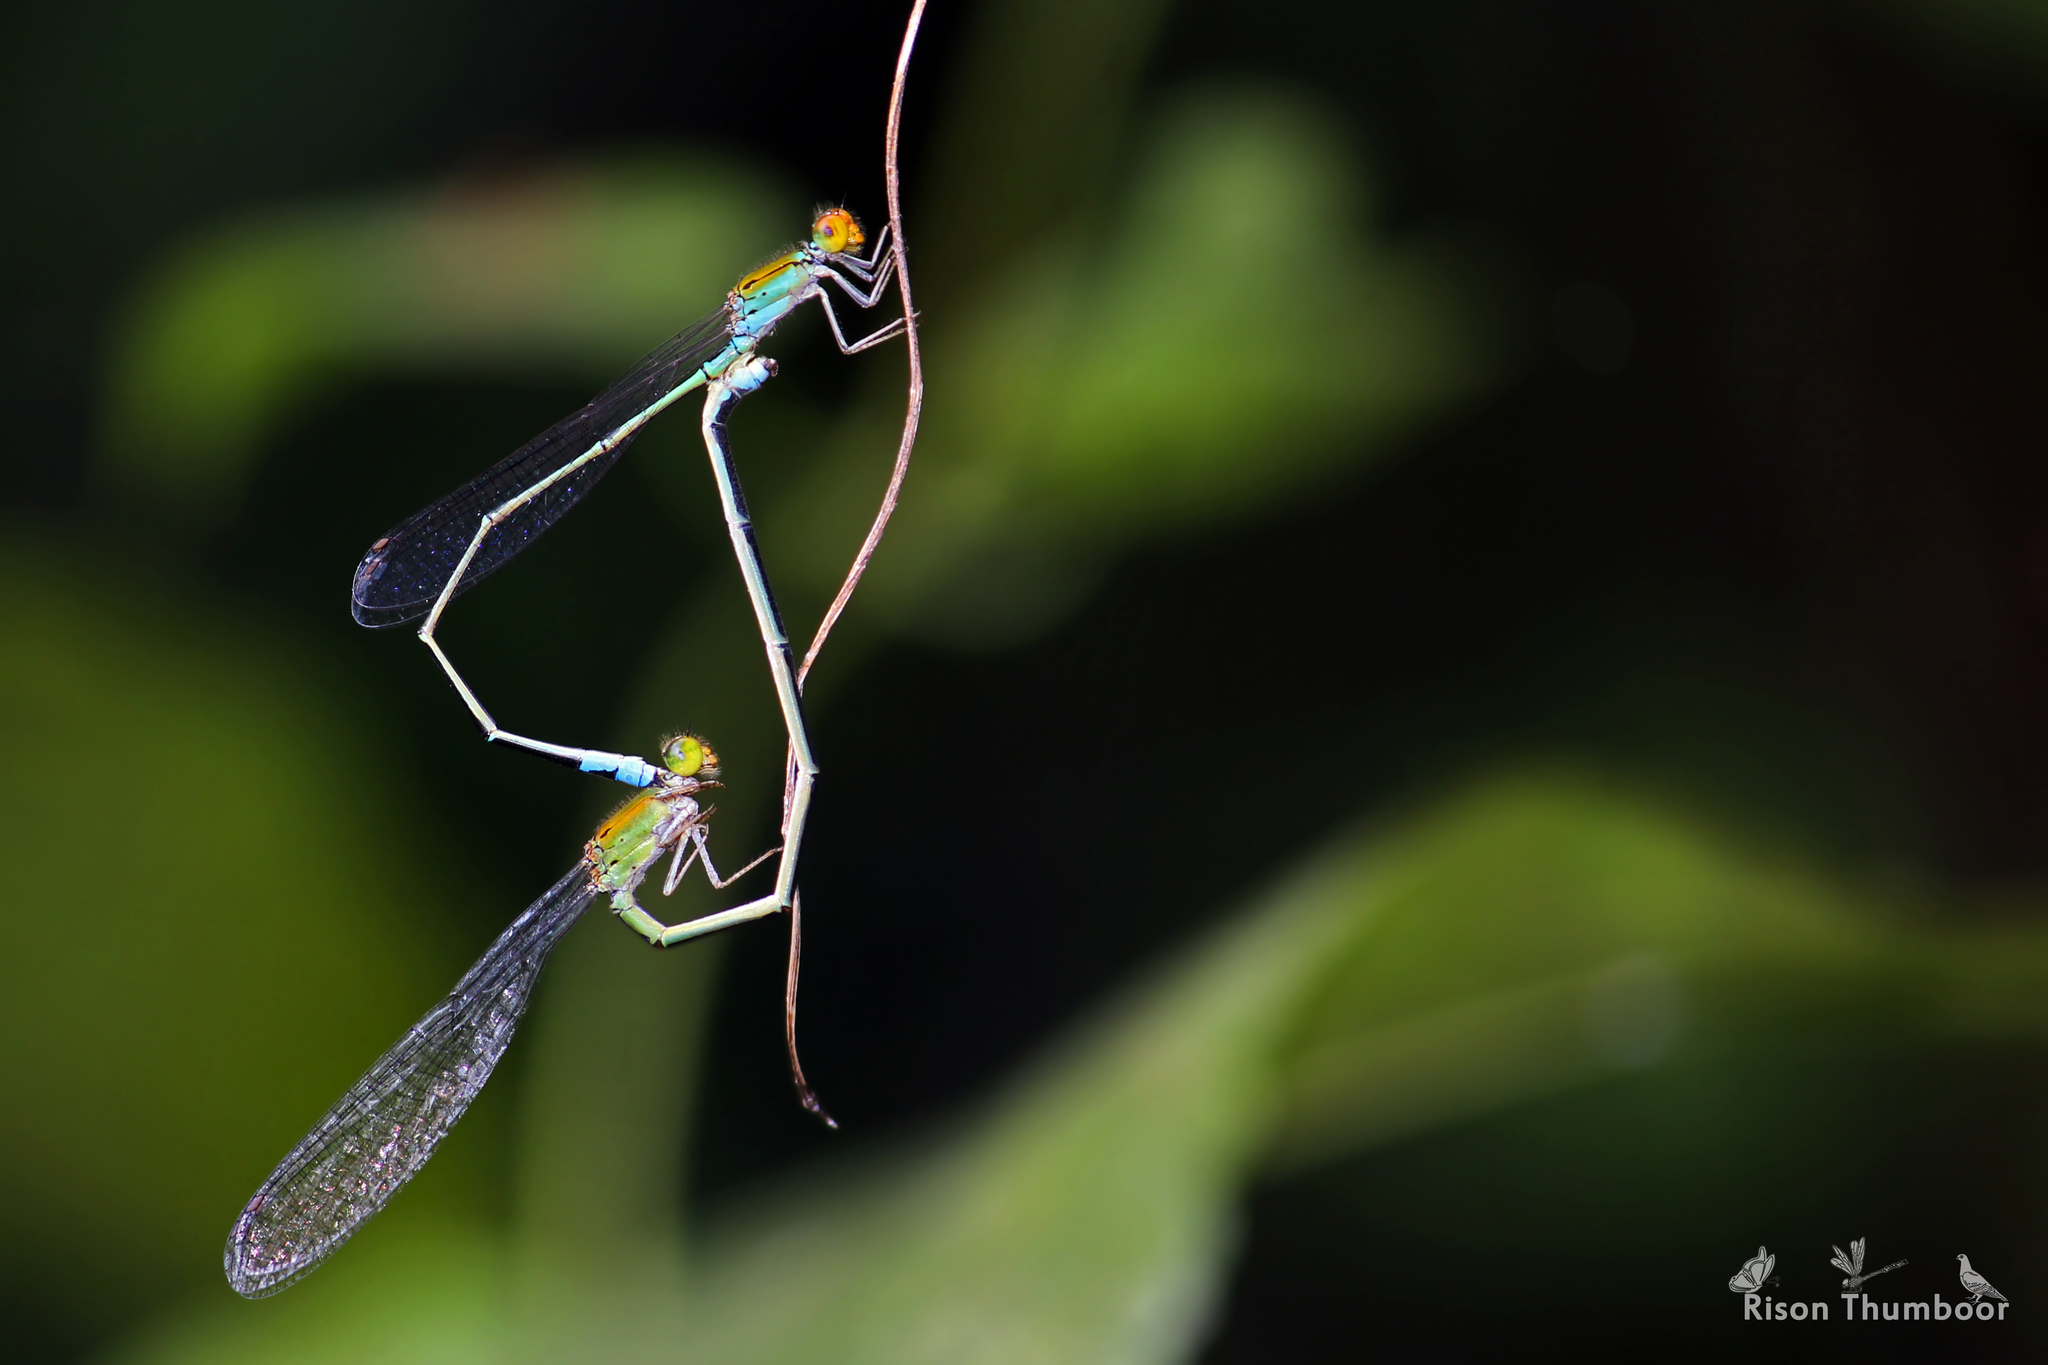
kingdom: Animalia
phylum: Arthropoda
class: Insecta
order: Odonata
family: Coenagrionidae
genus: Pseudagrion
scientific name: Pseudagrion rubriceps
